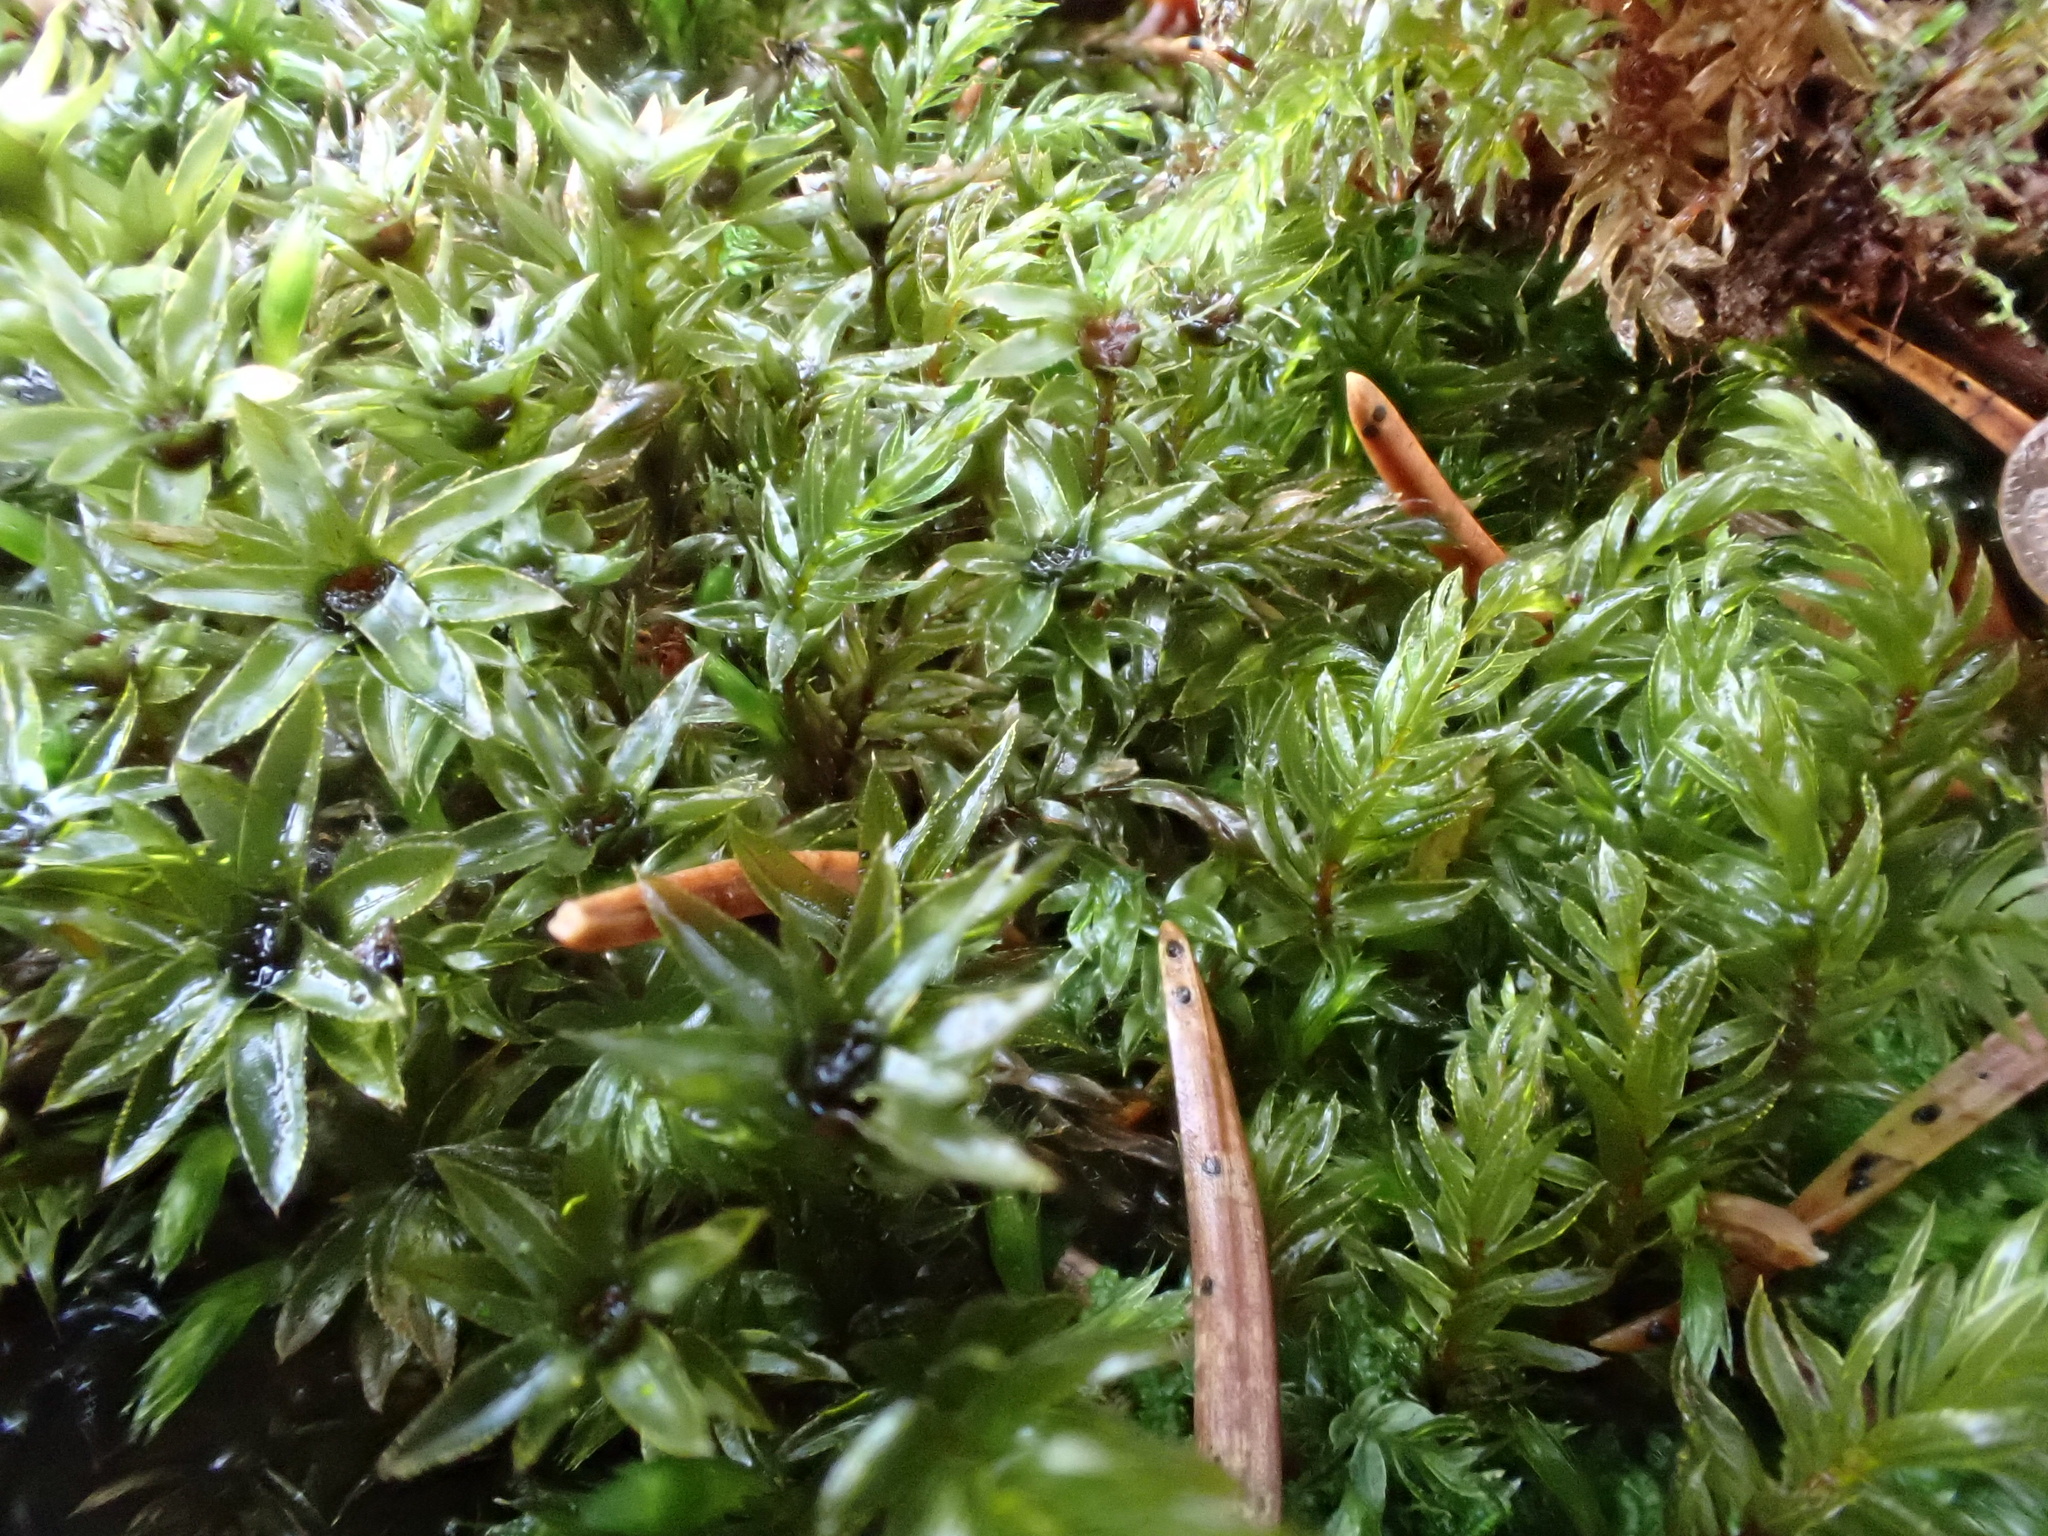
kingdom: Plantae
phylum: Bryophyta
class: Bryopsida
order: Bryales
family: Mniaceae
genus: Mnium
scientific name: Mnium hornum
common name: Swan's-neck leafy moss
